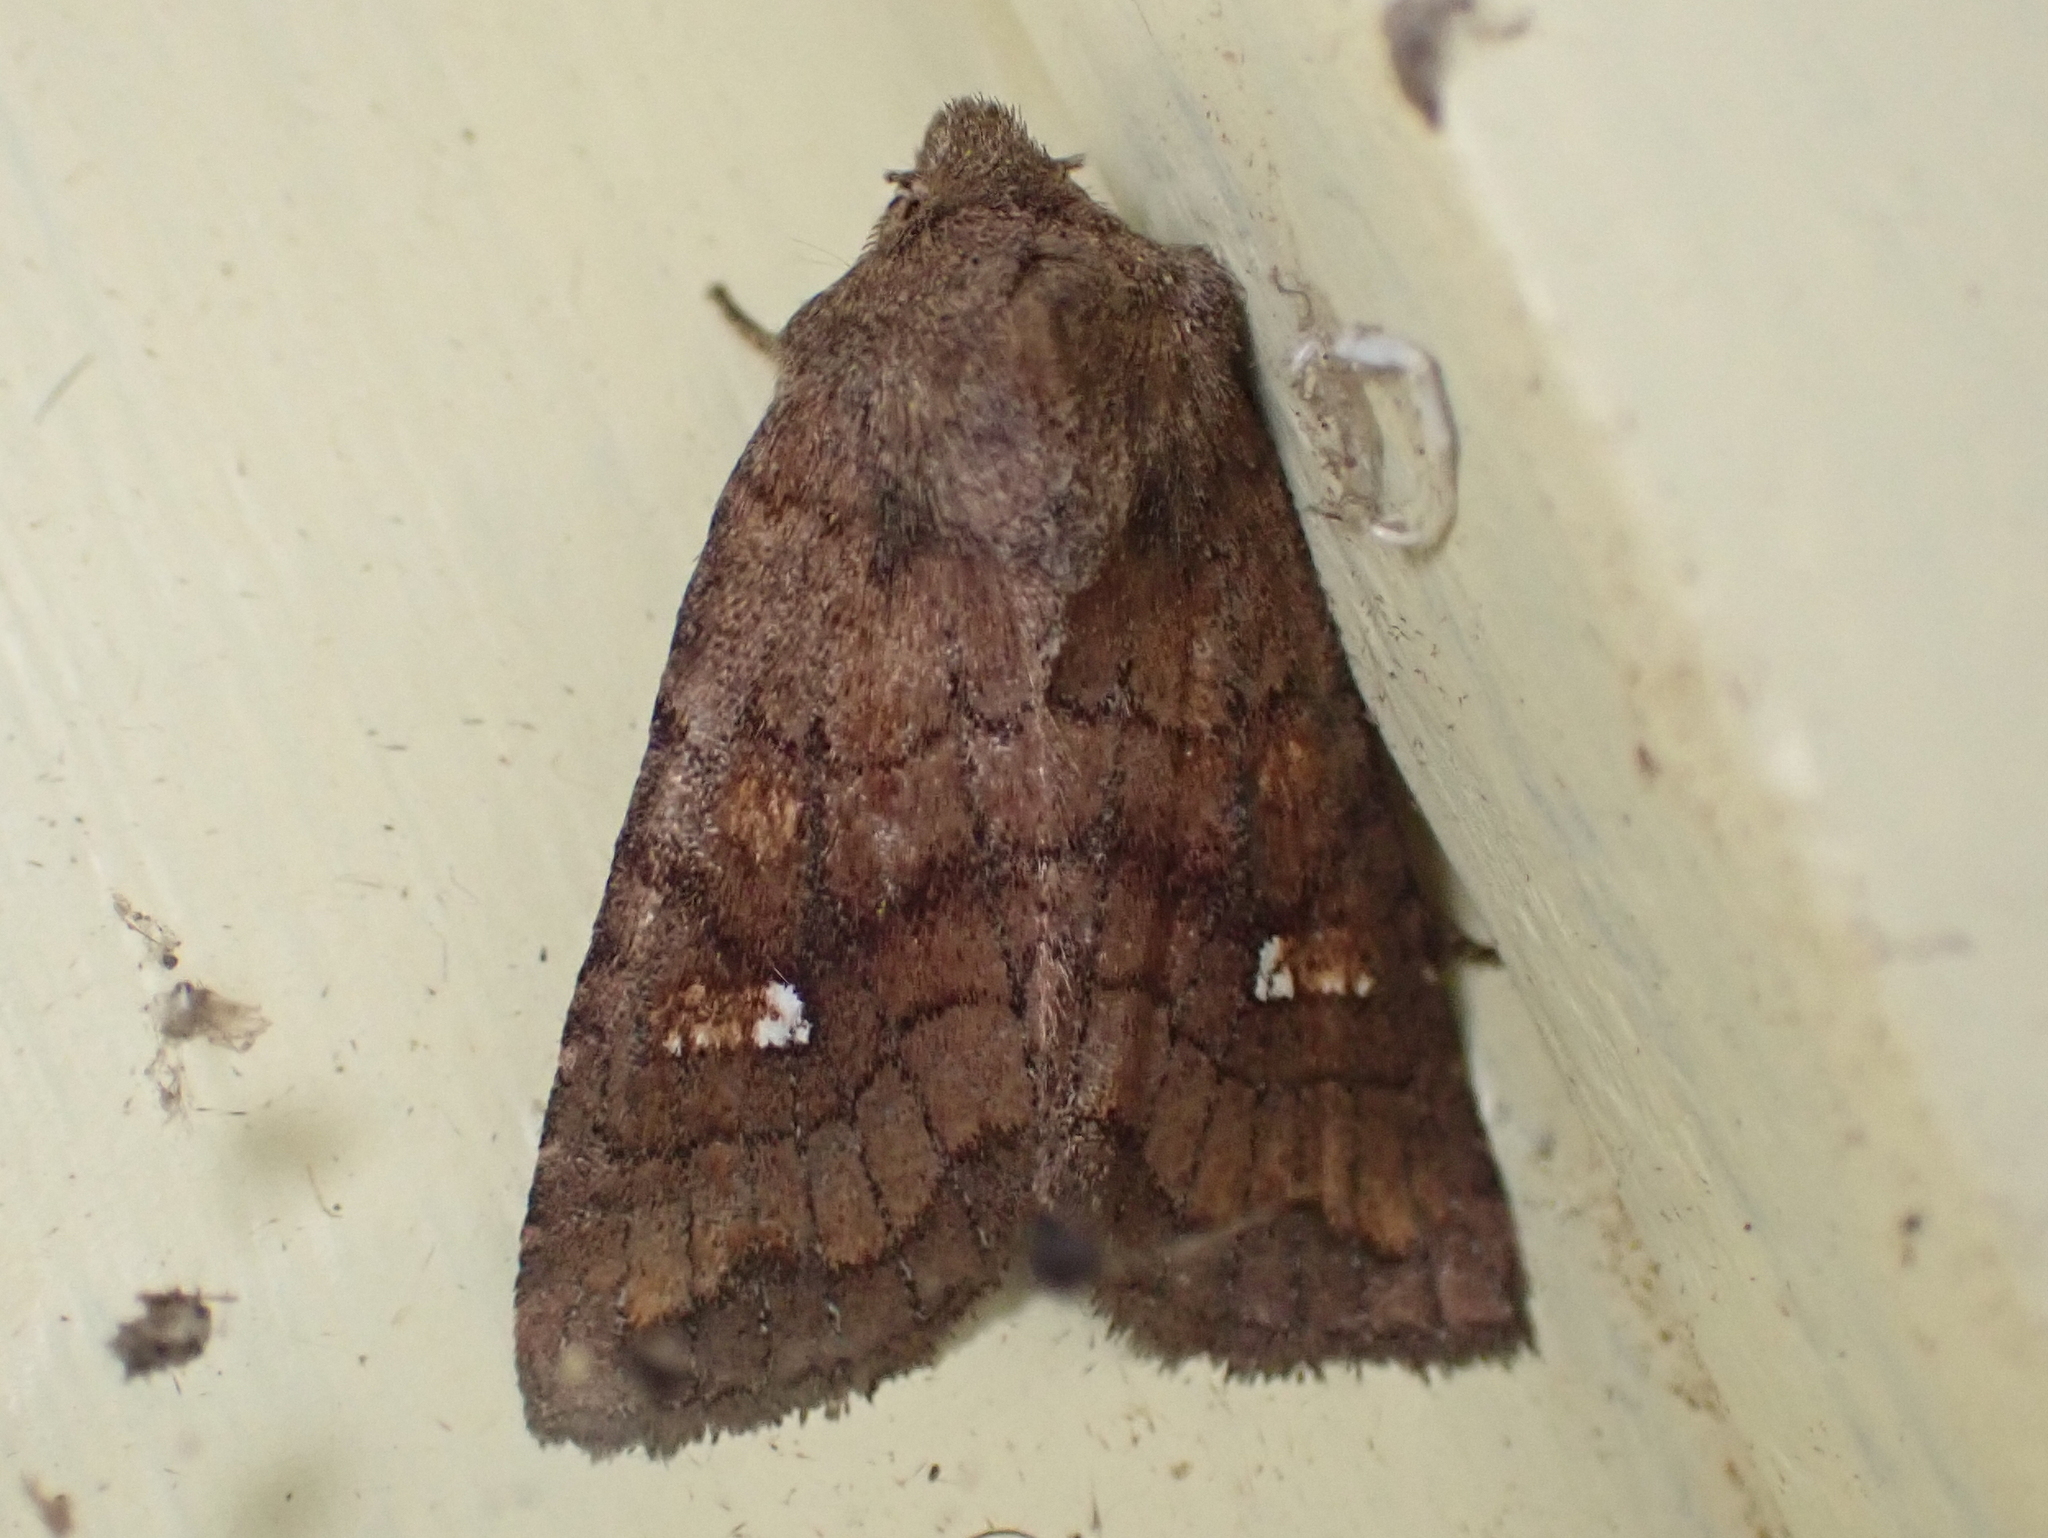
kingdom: Animalia
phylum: Arthropoda
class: Insecta
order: Lepidoptera
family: Noctuidae
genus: Tricholita
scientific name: Tricholita signata
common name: Signate quaker
